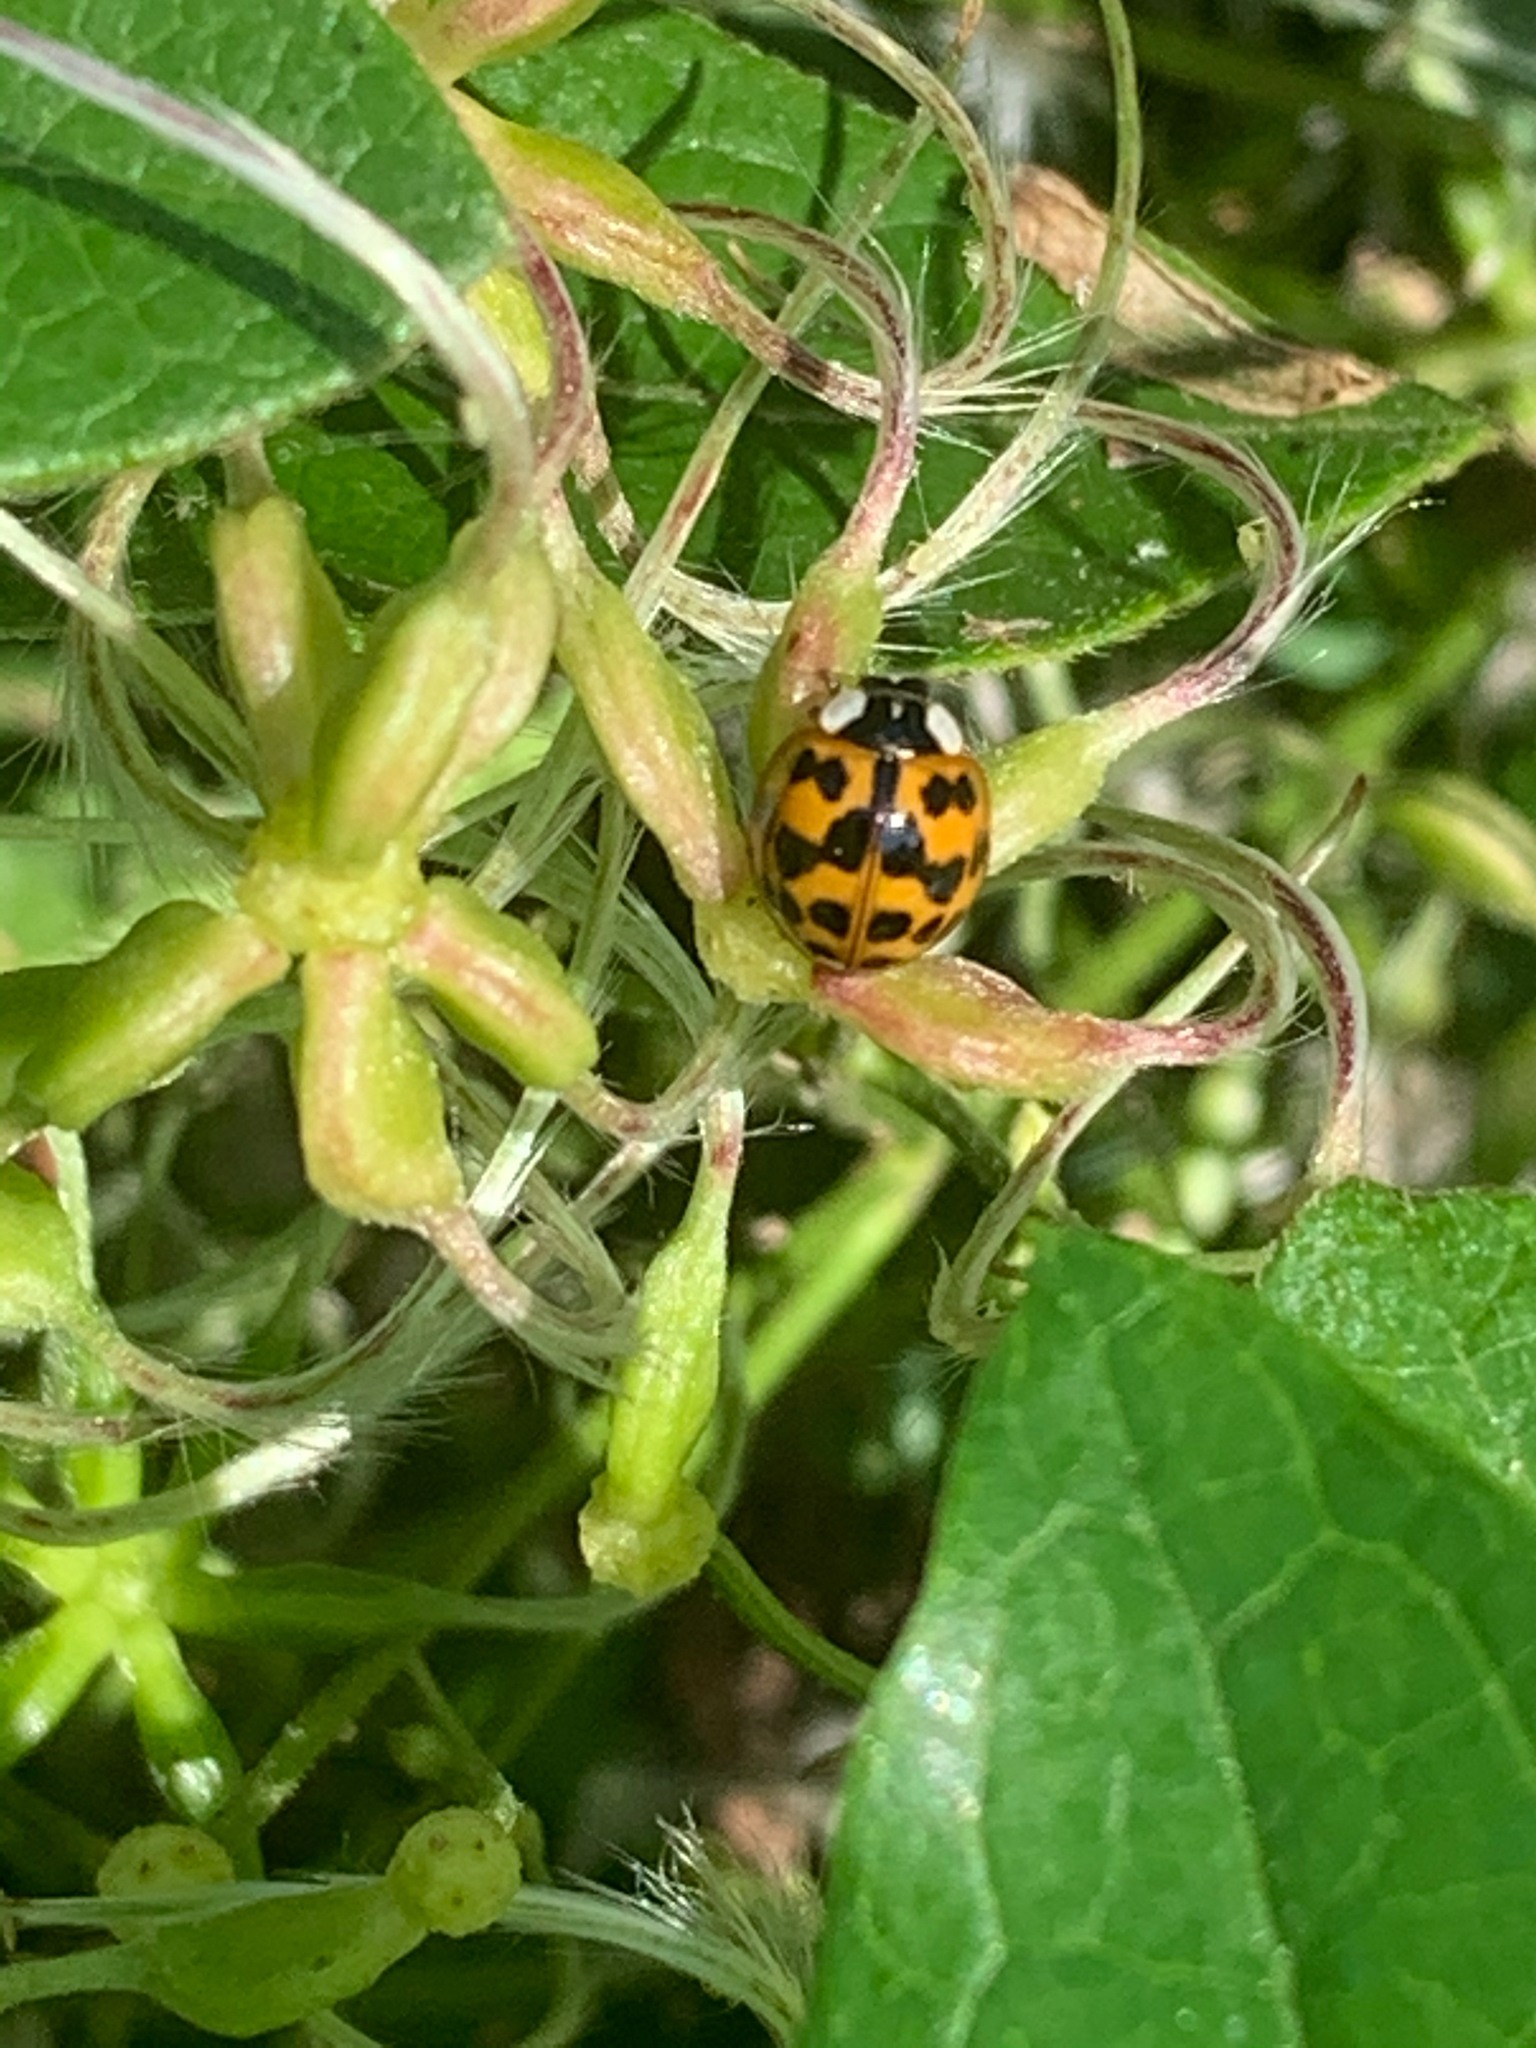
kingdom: Animalia
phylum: Arthropoda
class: Insecta
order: Coleoptera
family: Coccinellidae
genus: Harmonia
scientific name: Harmonia axyridis
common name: Harlequin ladybird
